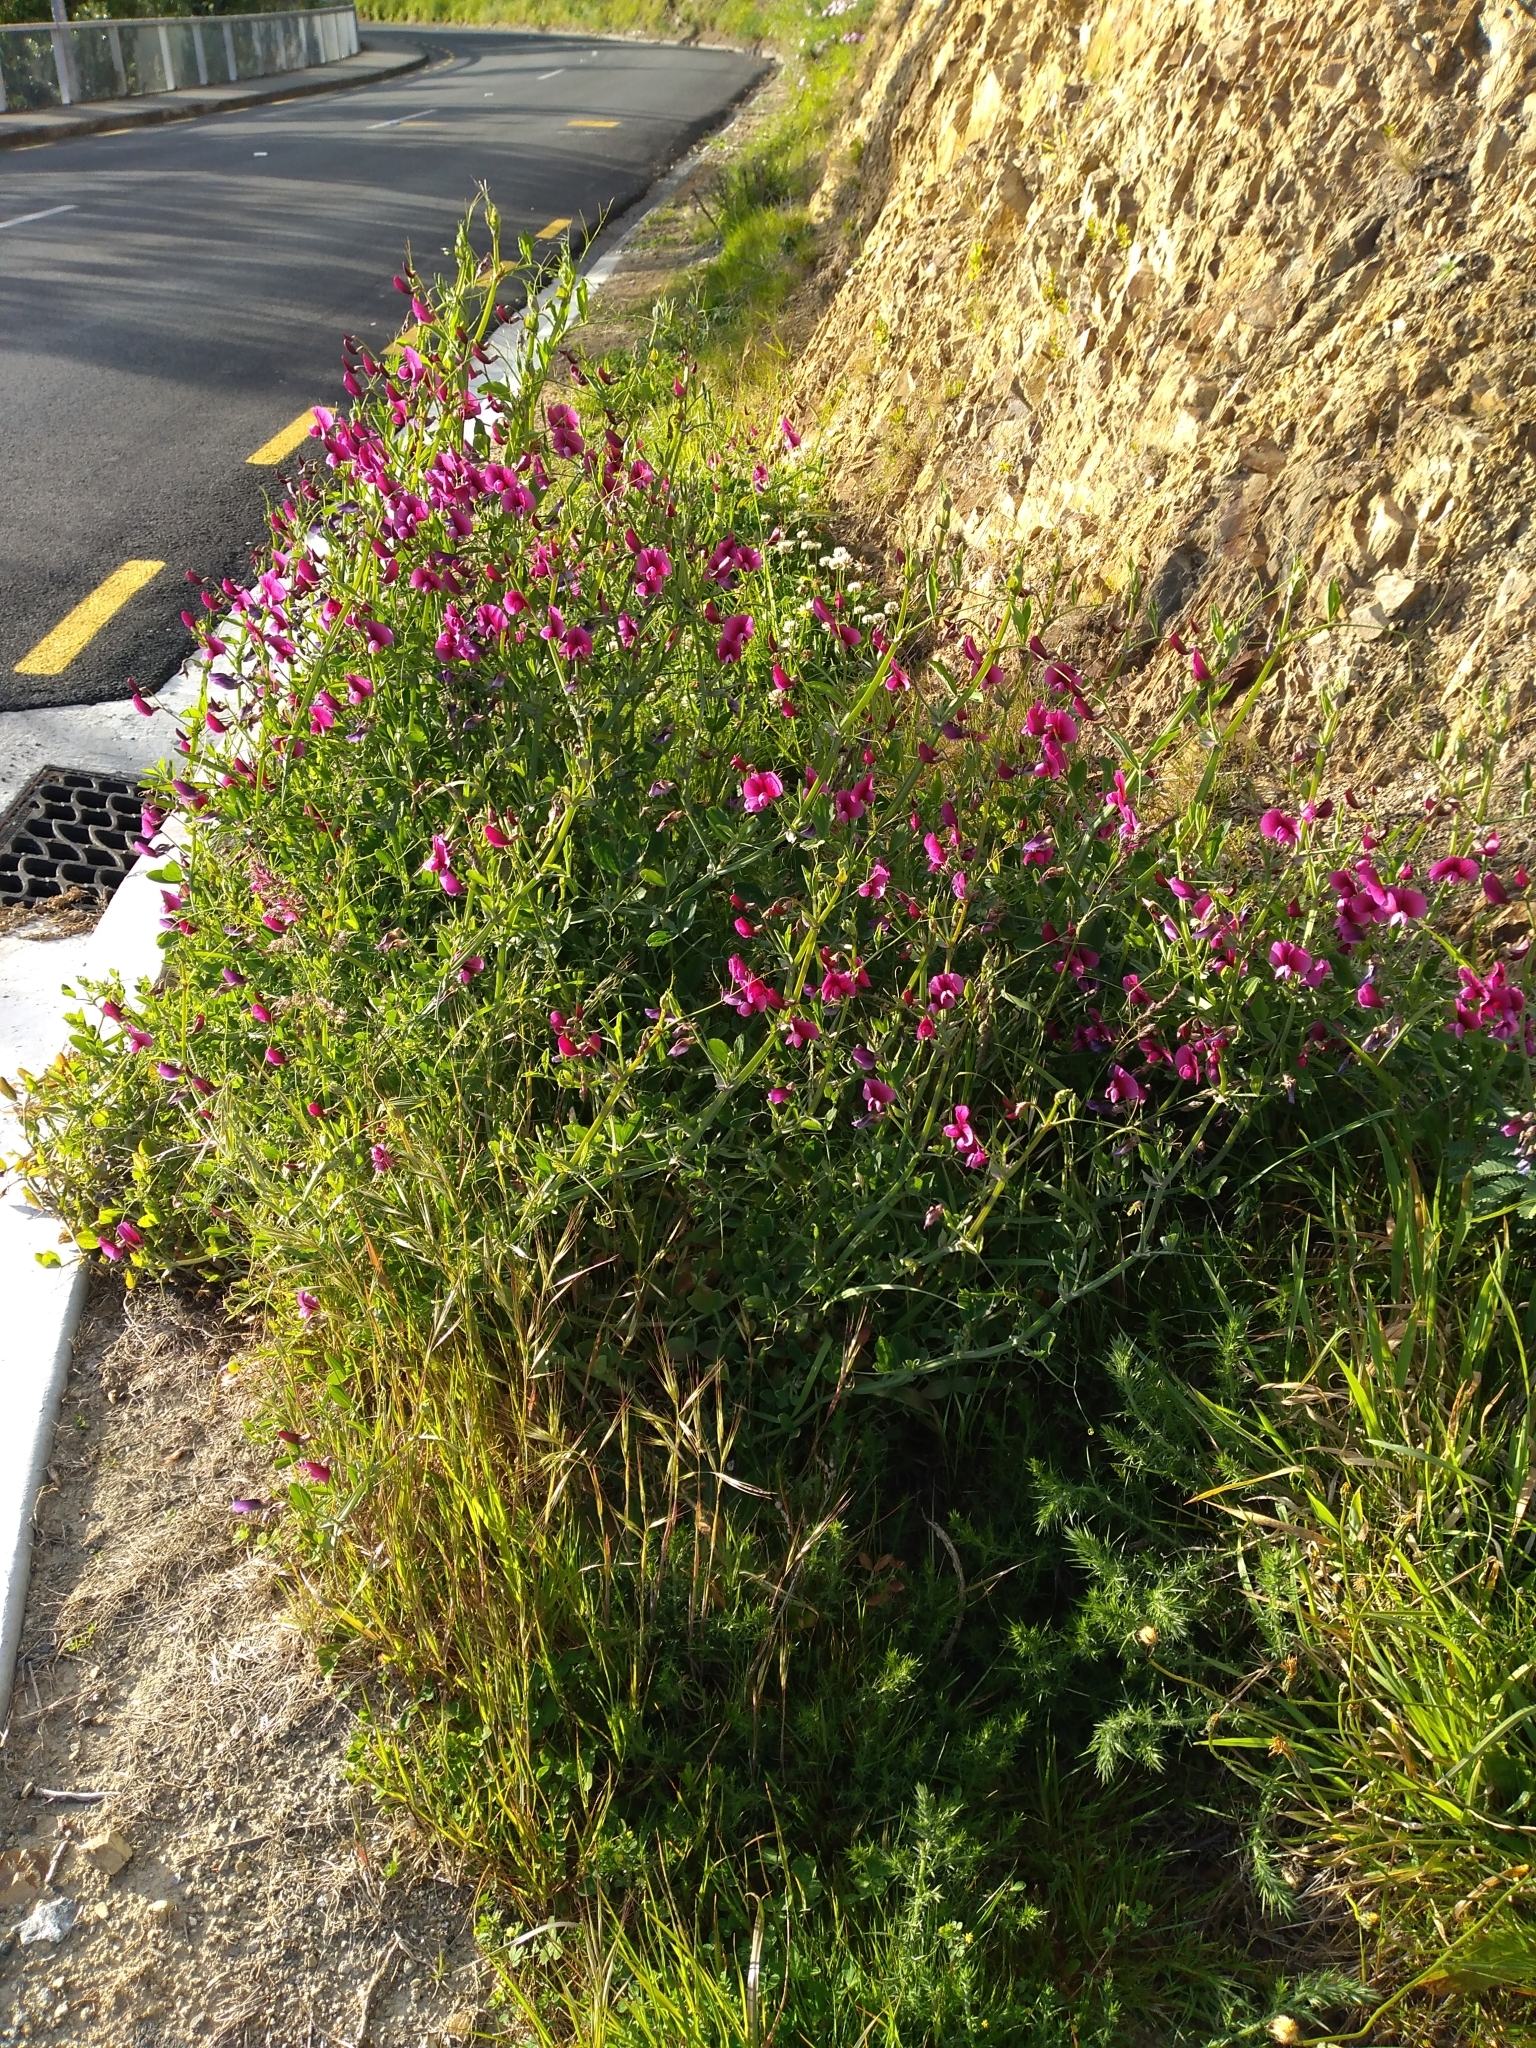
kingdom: Plantae
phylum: Tracheophyta
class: Magnoliopsida
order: Fabales
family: Fabaceae
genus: Lathyrus
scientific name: Lathyrus tingitanus
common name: Tangier pea
